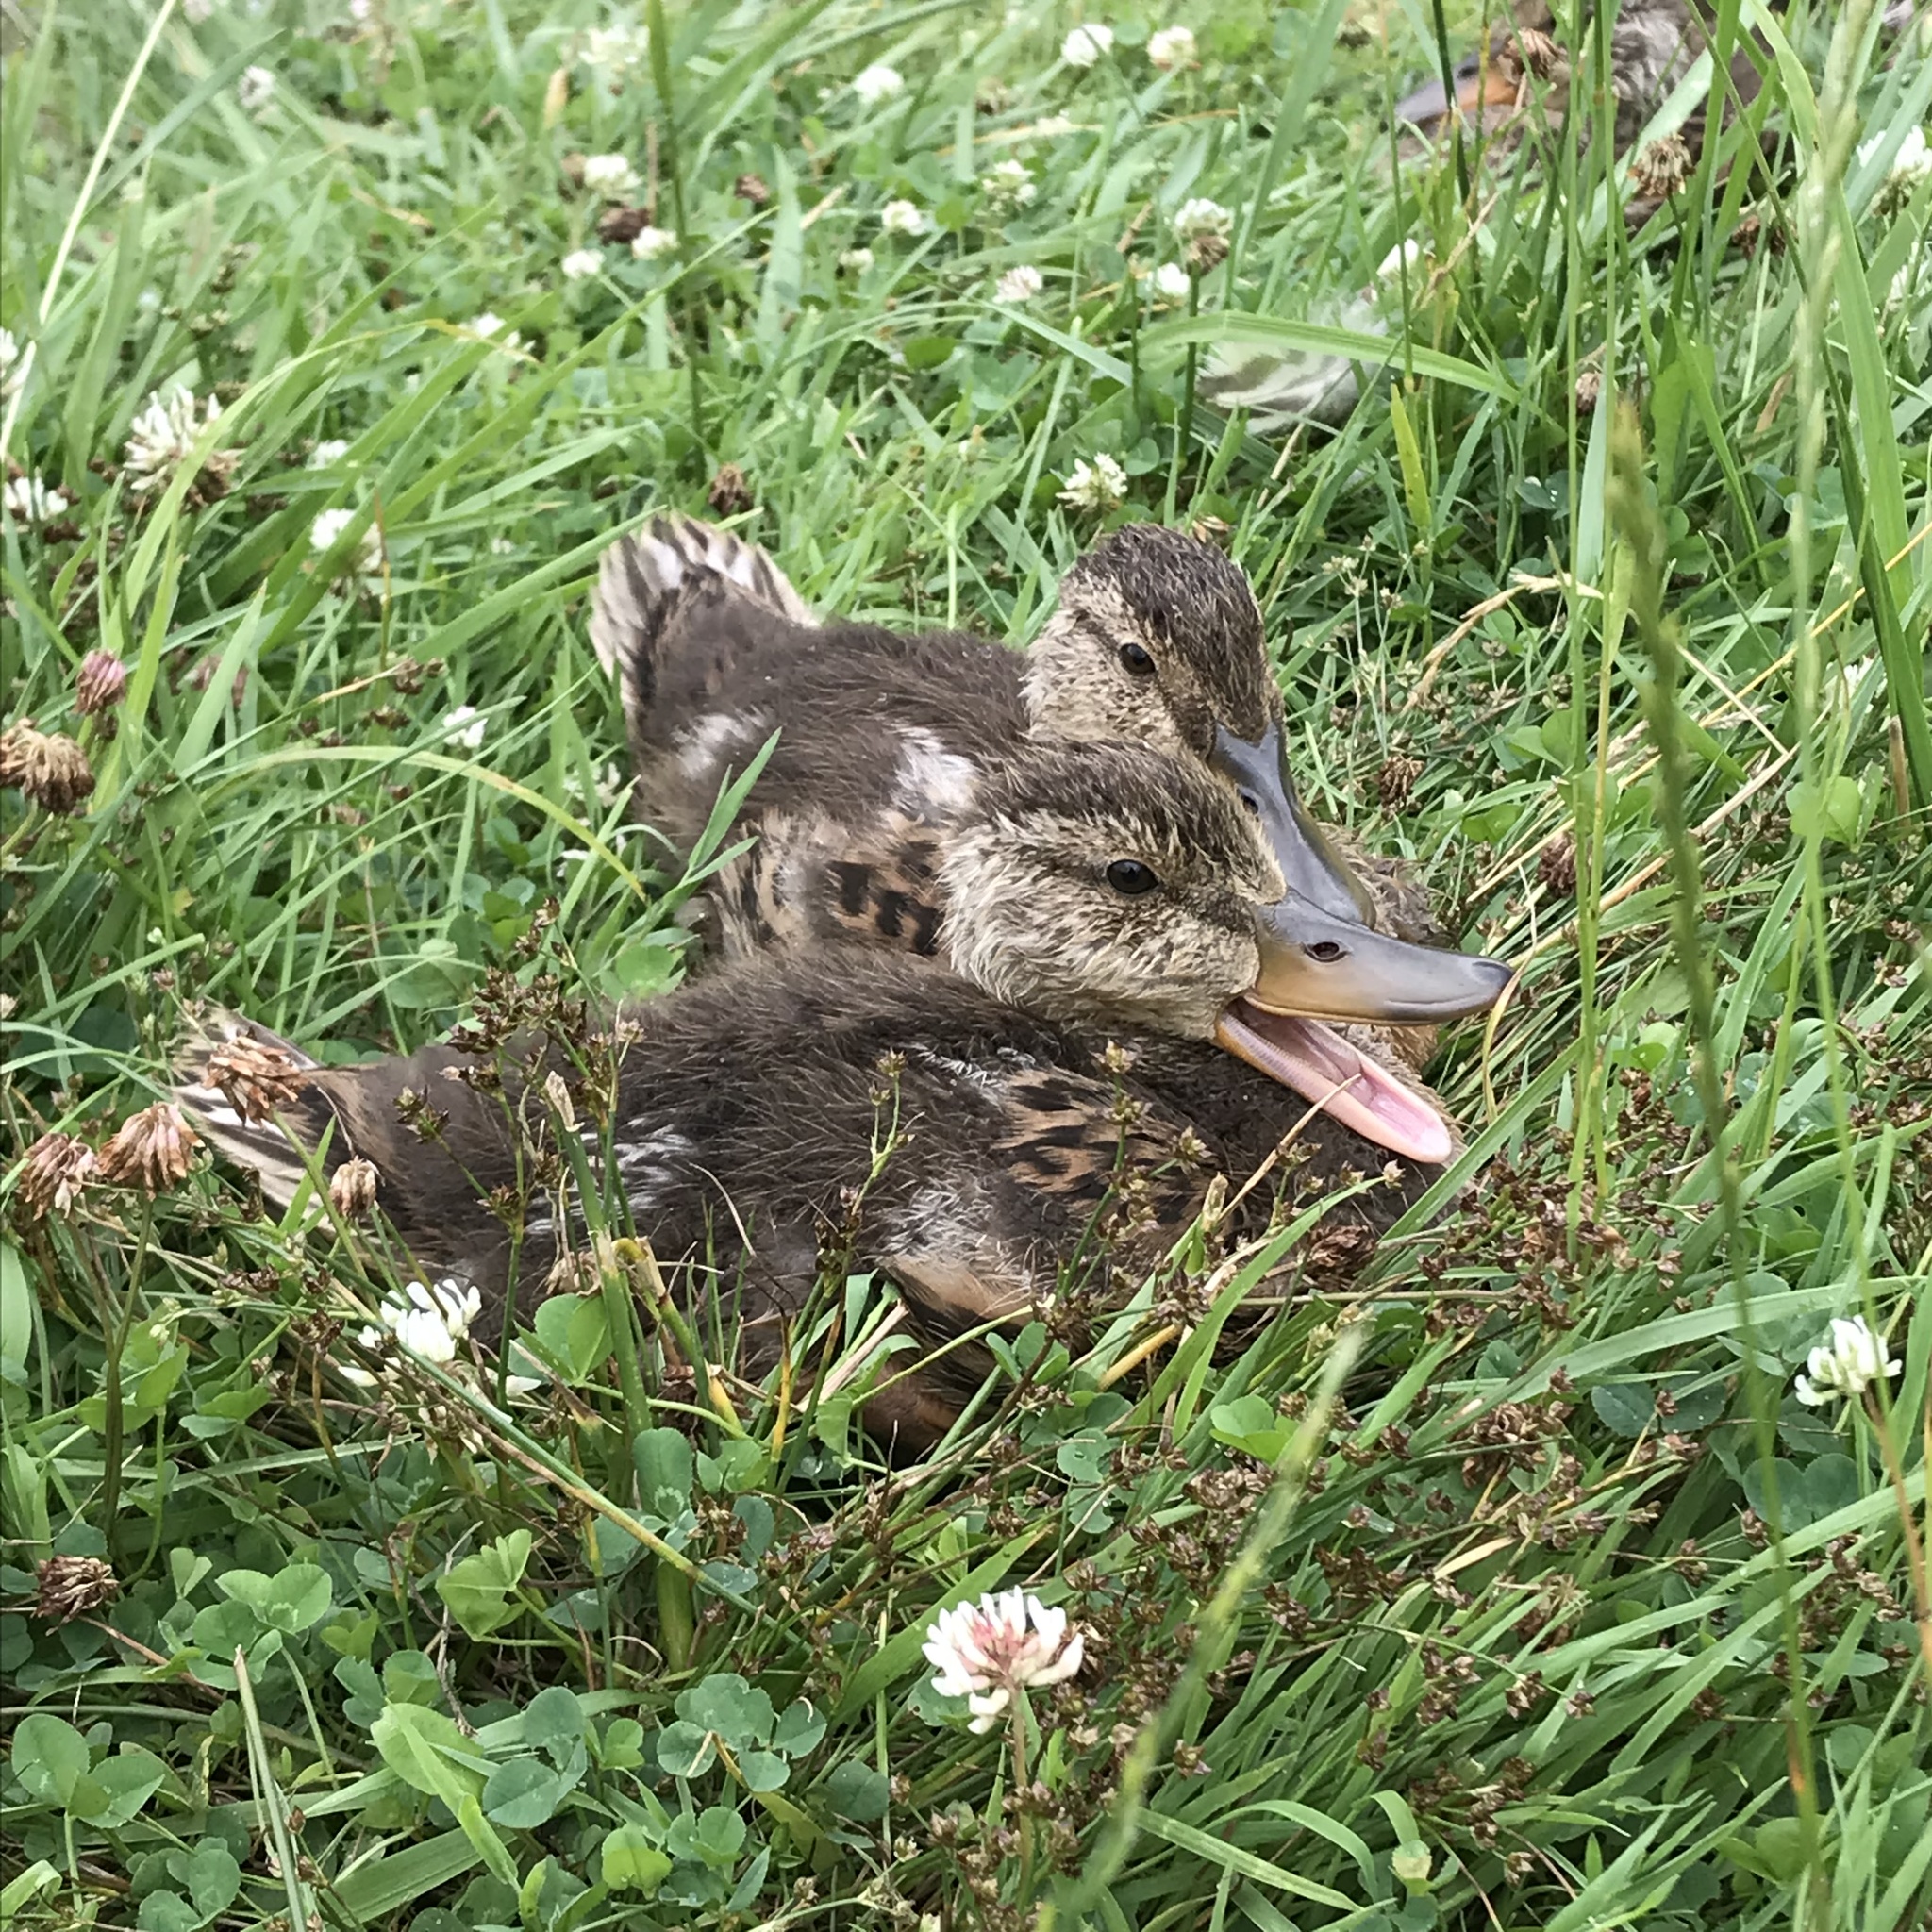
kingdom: Animalia
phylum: Chordata
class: Aves
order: Anseriformes
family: Anatidae
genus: Anas
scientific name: Anas platyrhynchos
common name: Mallard
